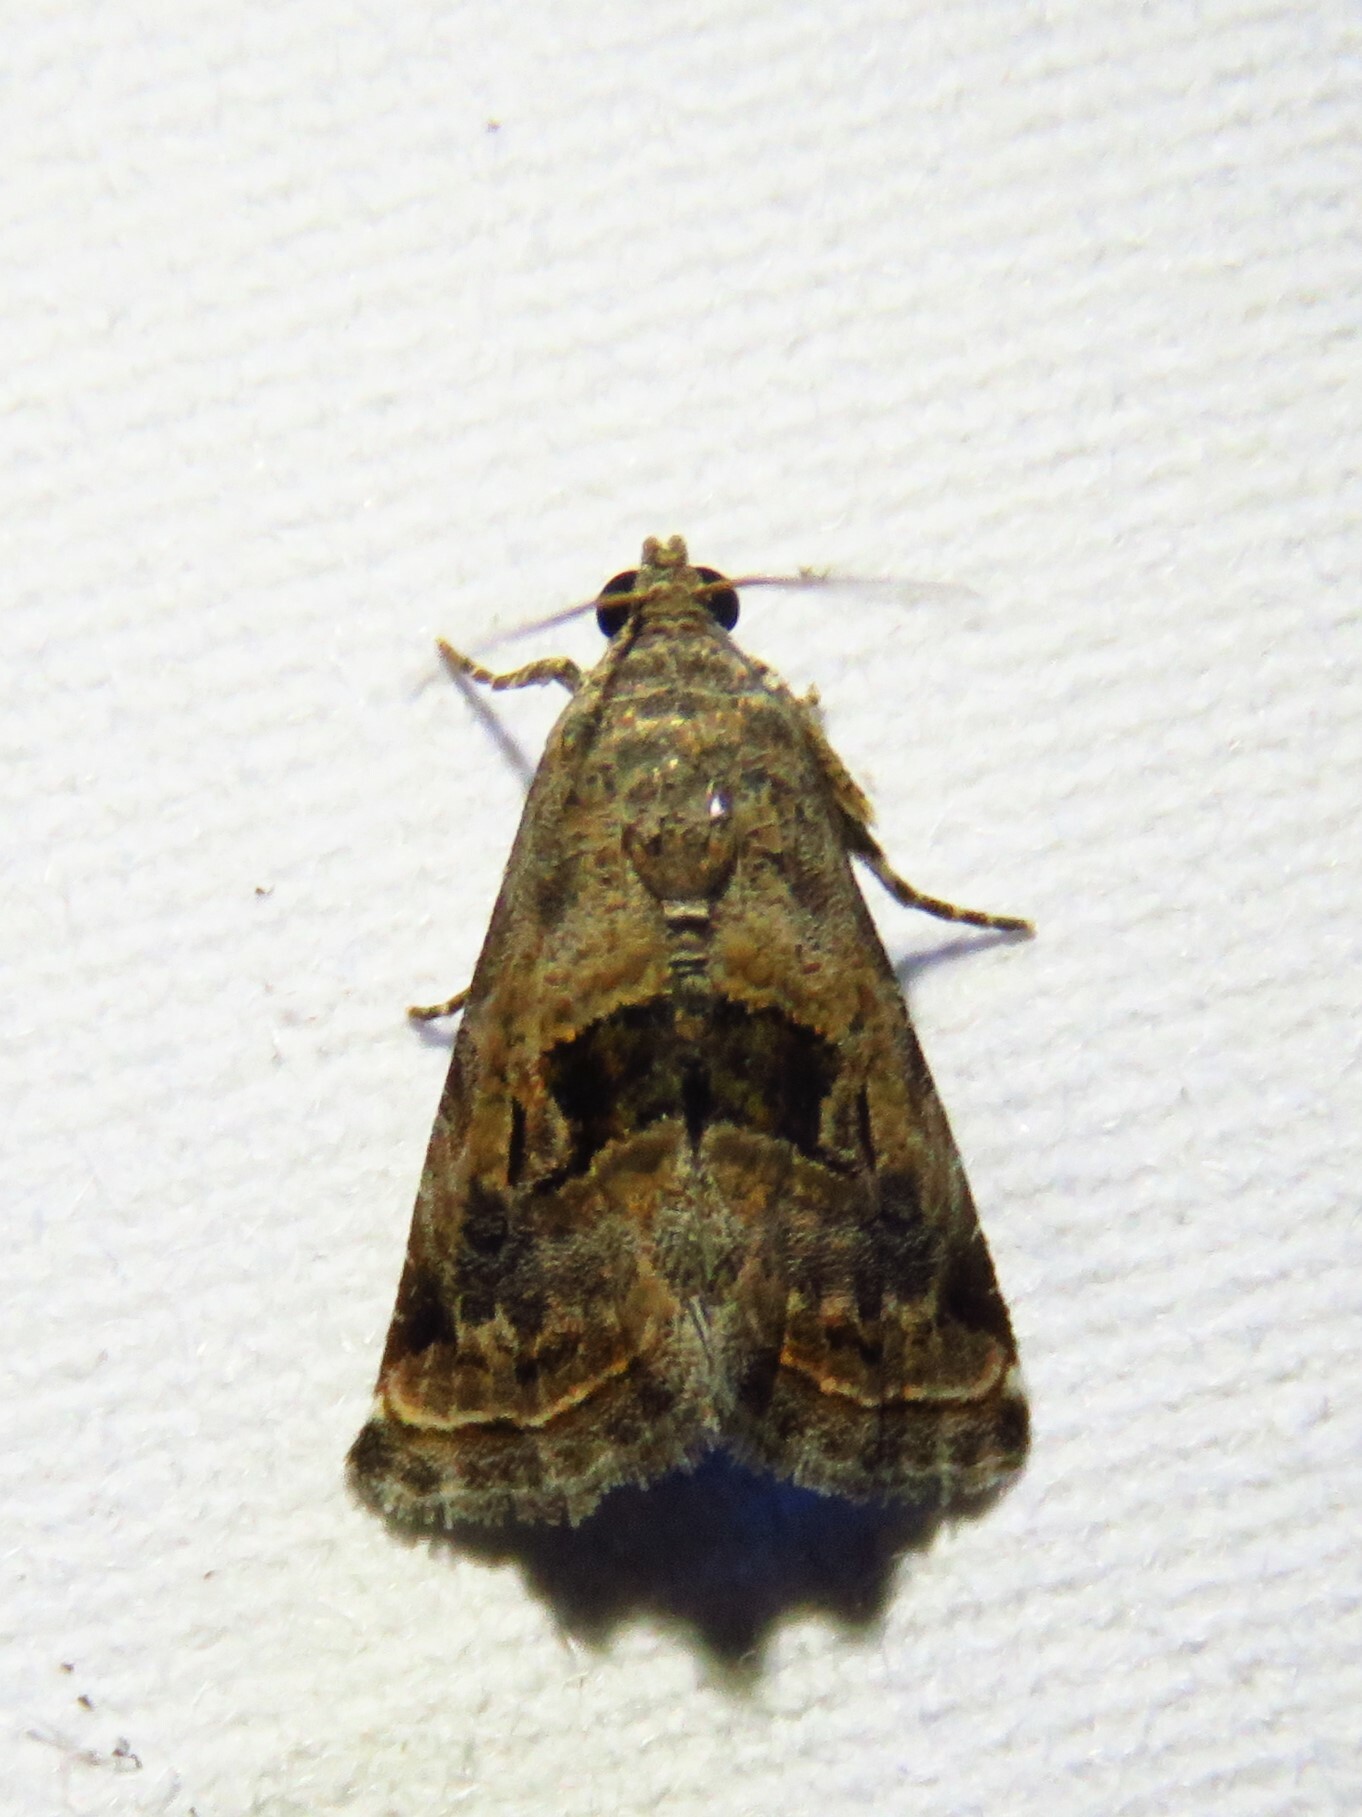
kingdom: Animalia
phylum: Arthropoda
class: Insecta
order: Lepidoptera
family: Noctuidae
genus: Tripudia
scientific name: Tripudia quadrifera
